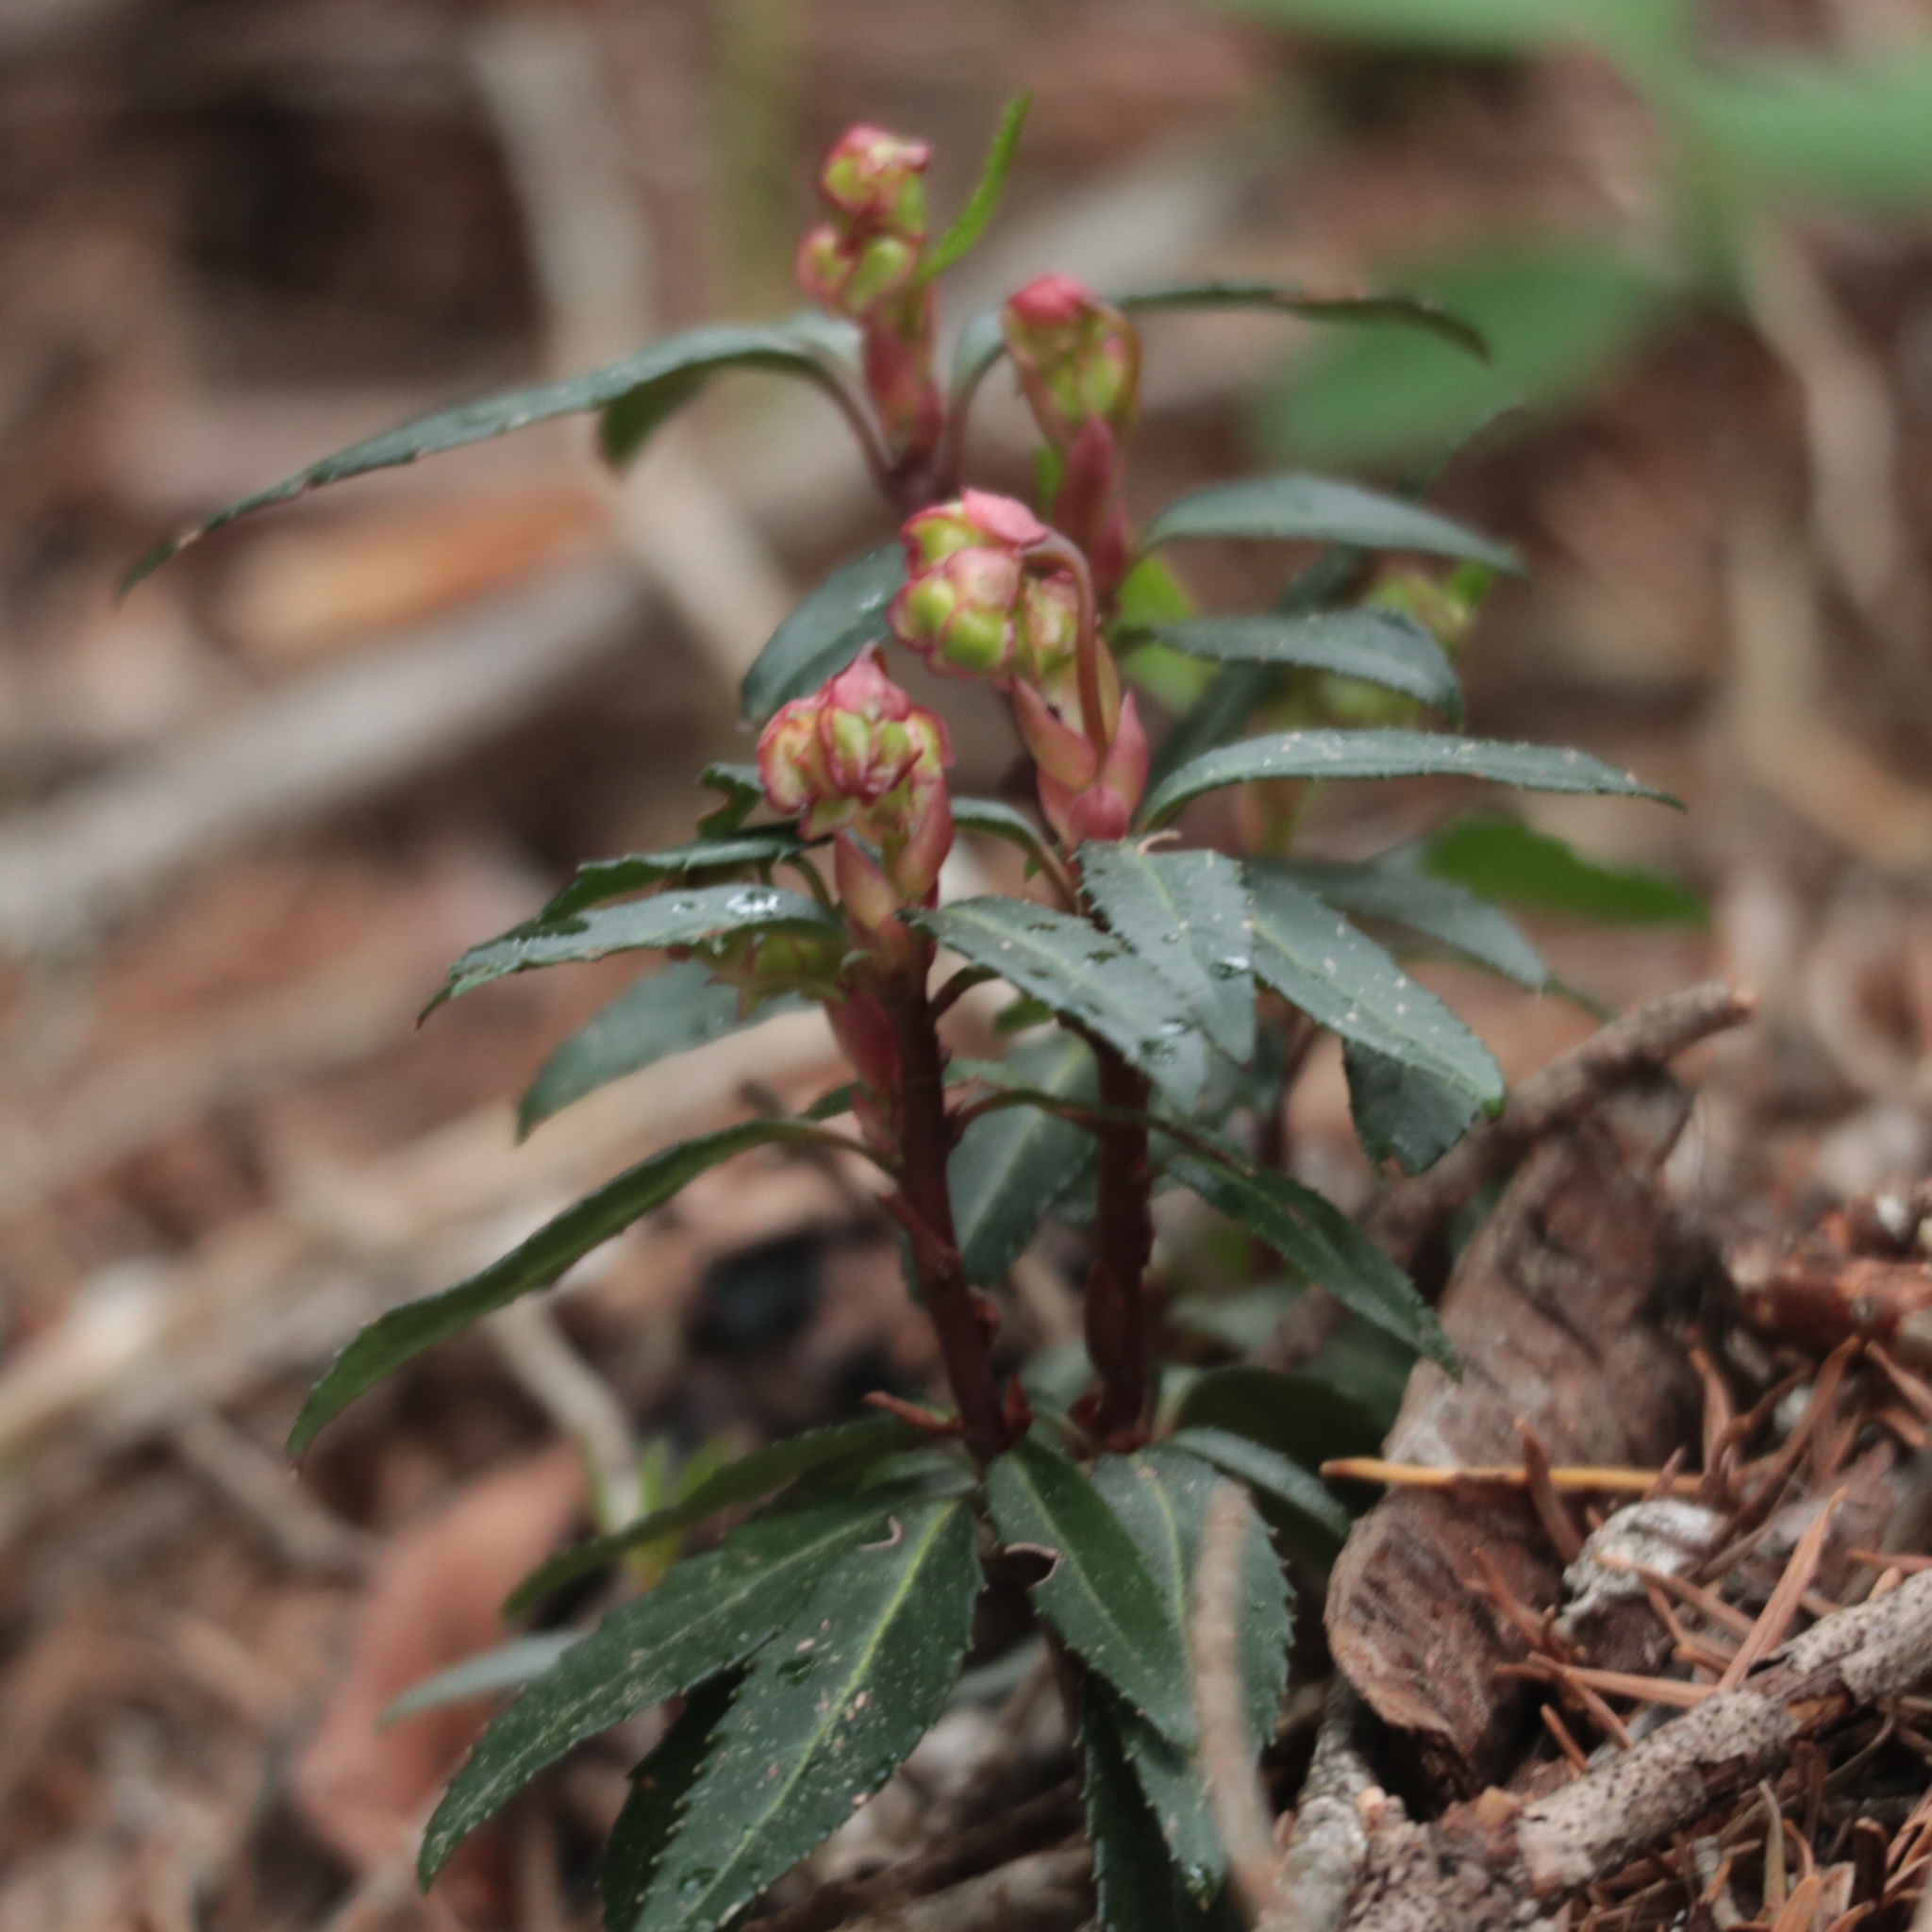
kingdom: Plantae
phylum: Tracheophyta
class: Magnoliopsida
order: Ericales
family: Ericaceae
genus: Chimaphila
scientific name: Chimaphila menziesii
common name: Menzies' pipsissewa
